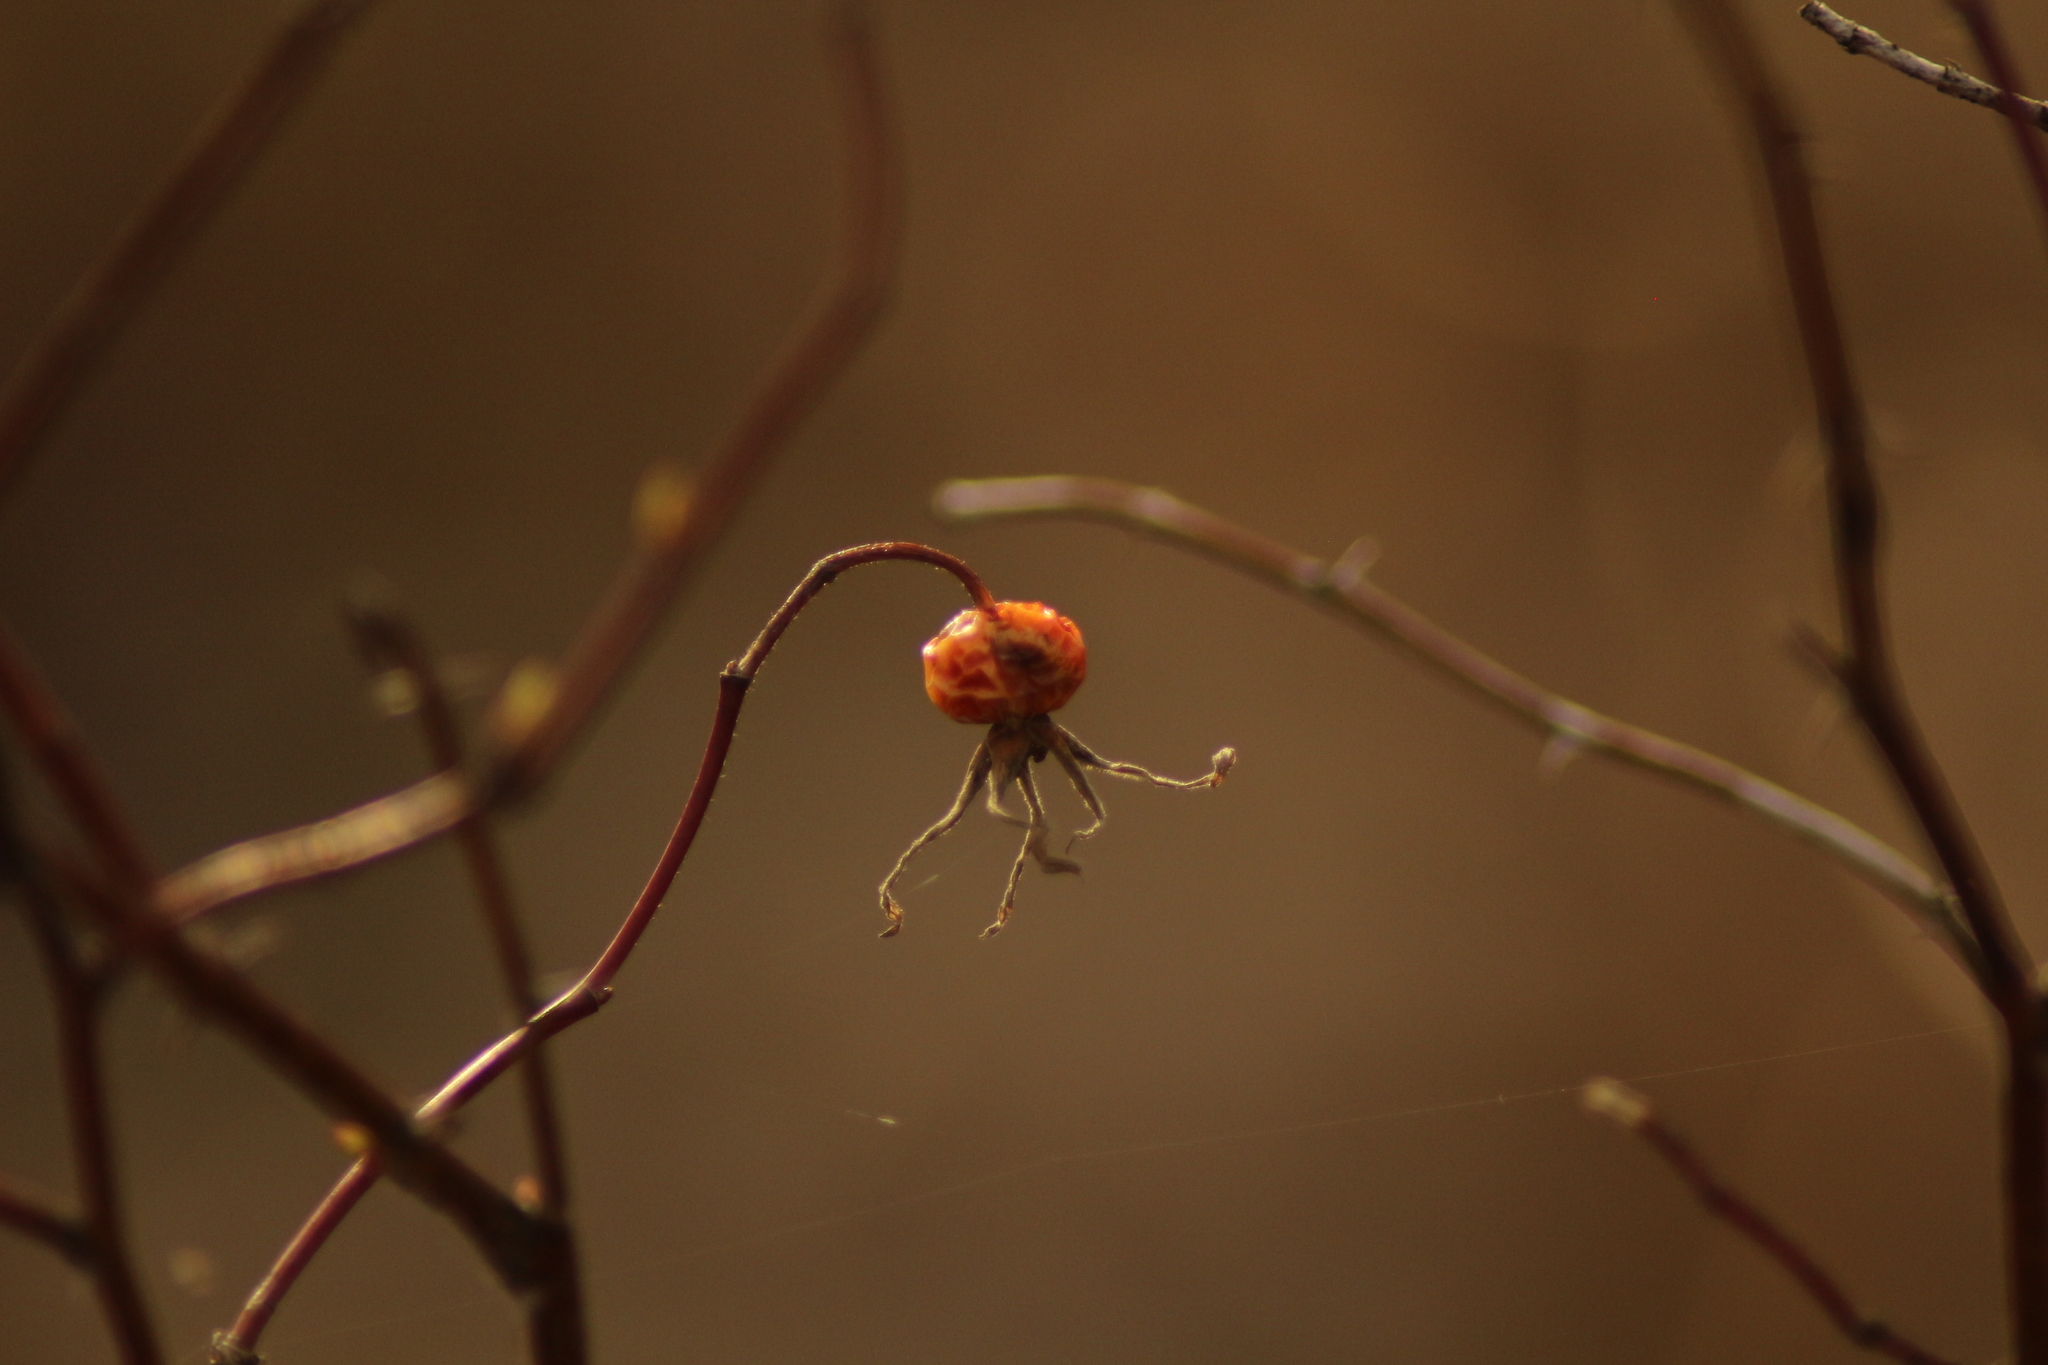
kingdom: Plantae
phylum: Tracheophyta
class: Magnoliopsida
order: Rosales
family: Rosaceae
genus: Rosa
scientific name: Rosa majalis
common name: Cinnamon rose
